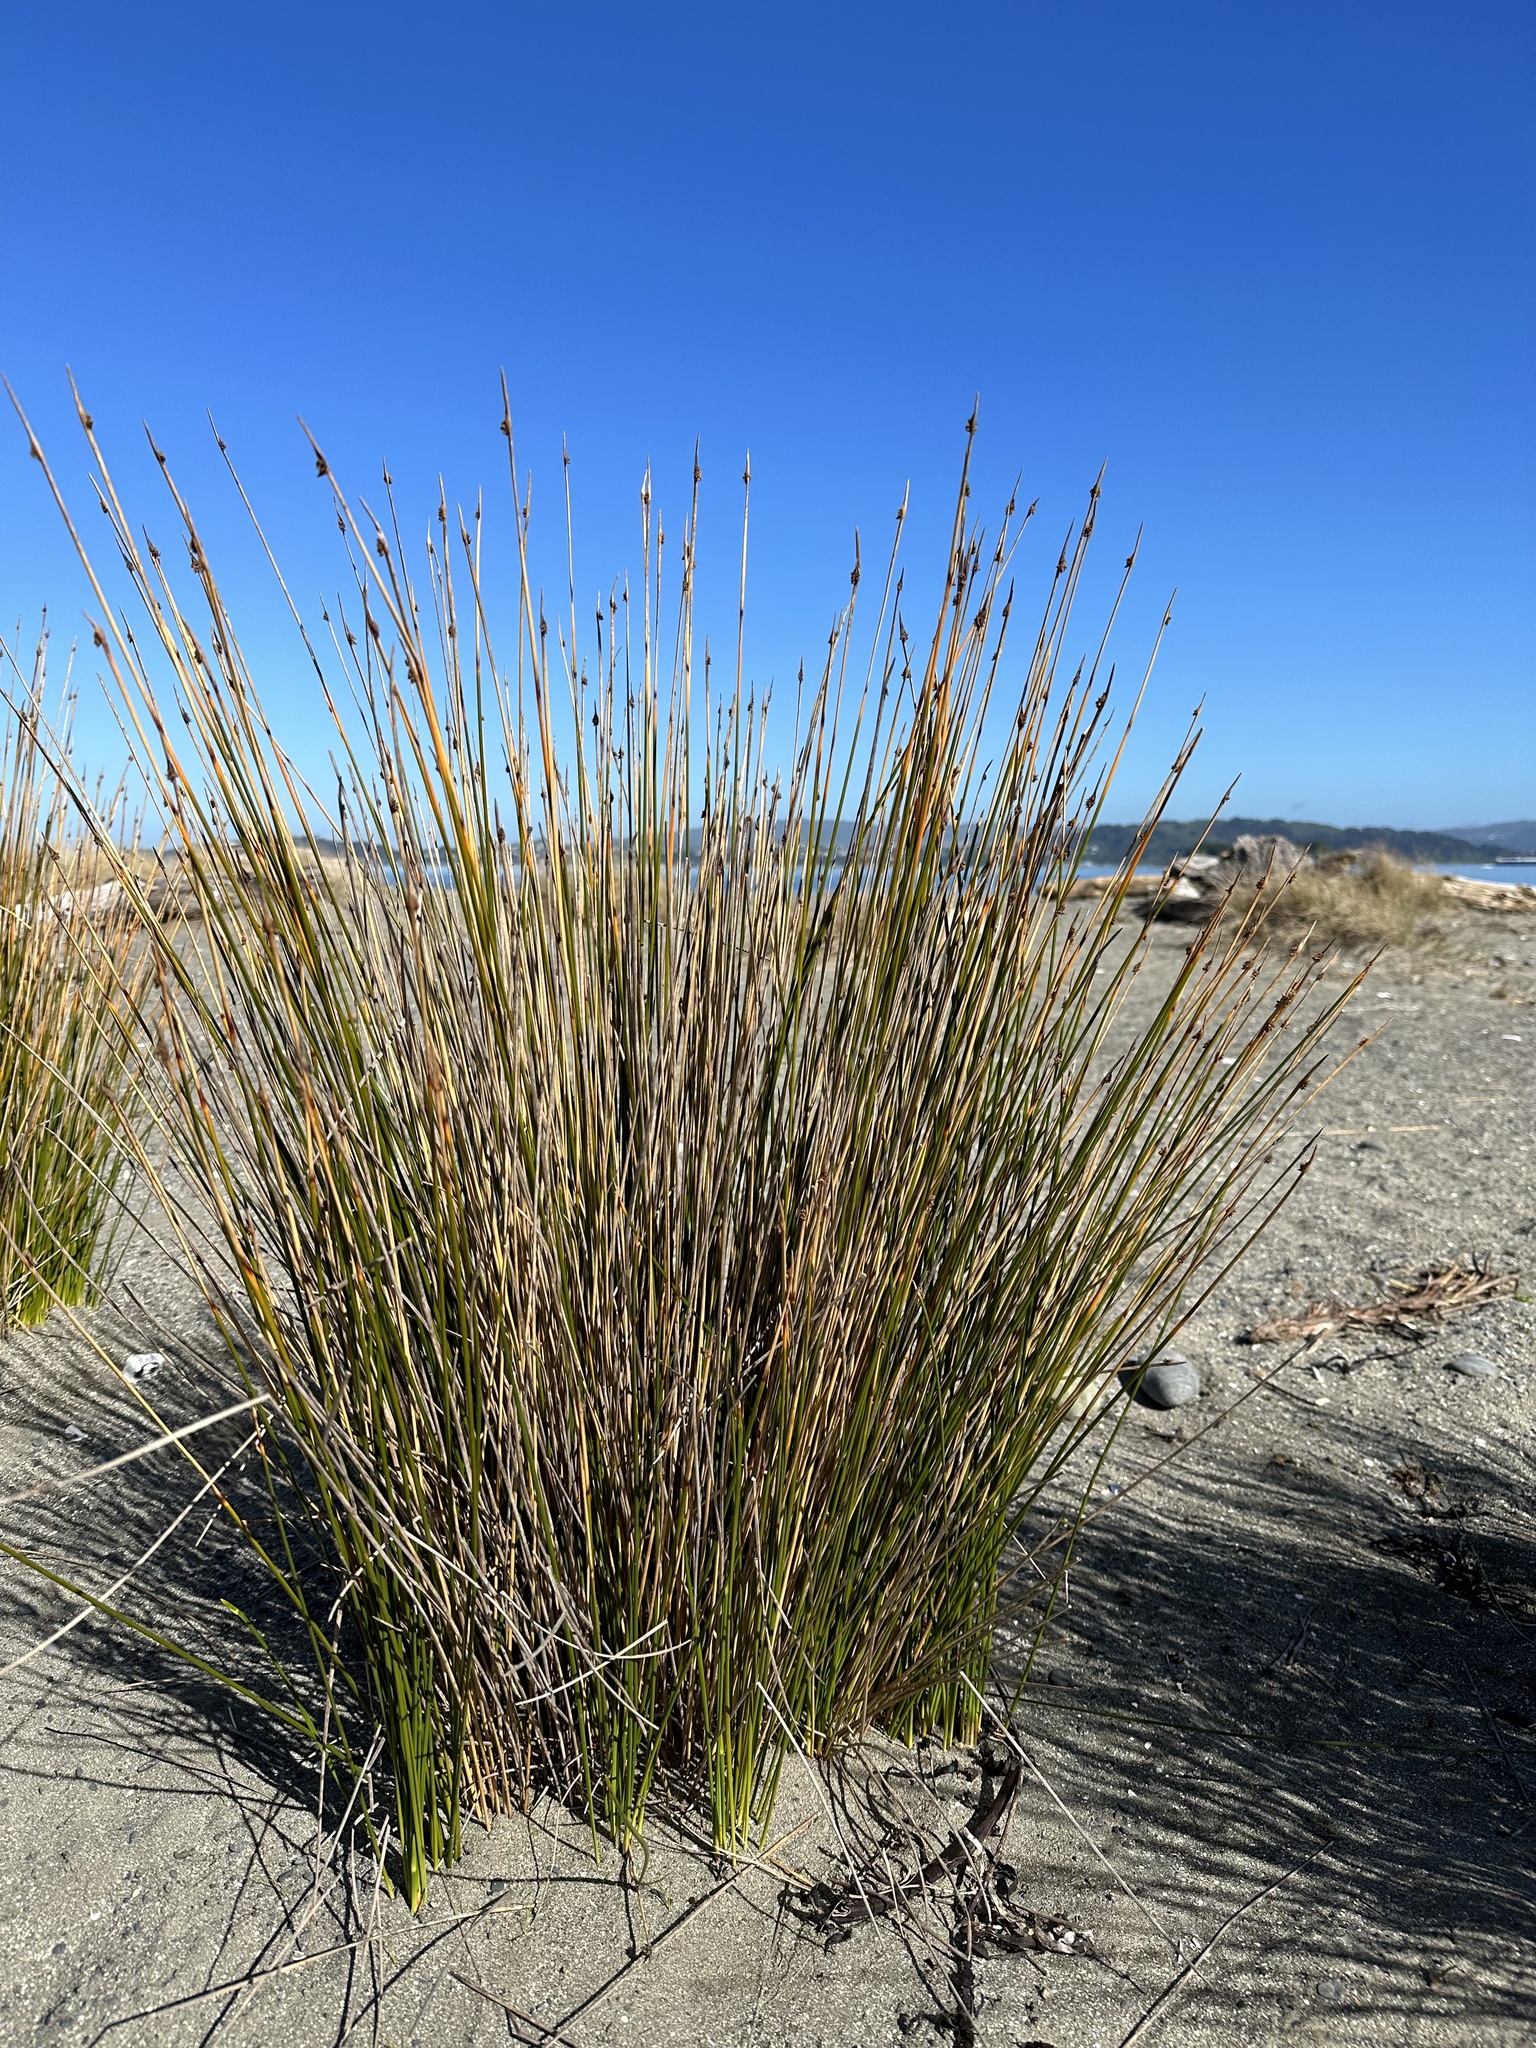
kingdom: Plantae
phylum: Tracheophyta
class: Liliopsida
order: Poales
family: Cyperaceae
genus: Ficinia
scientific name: Ficinia nodosa
